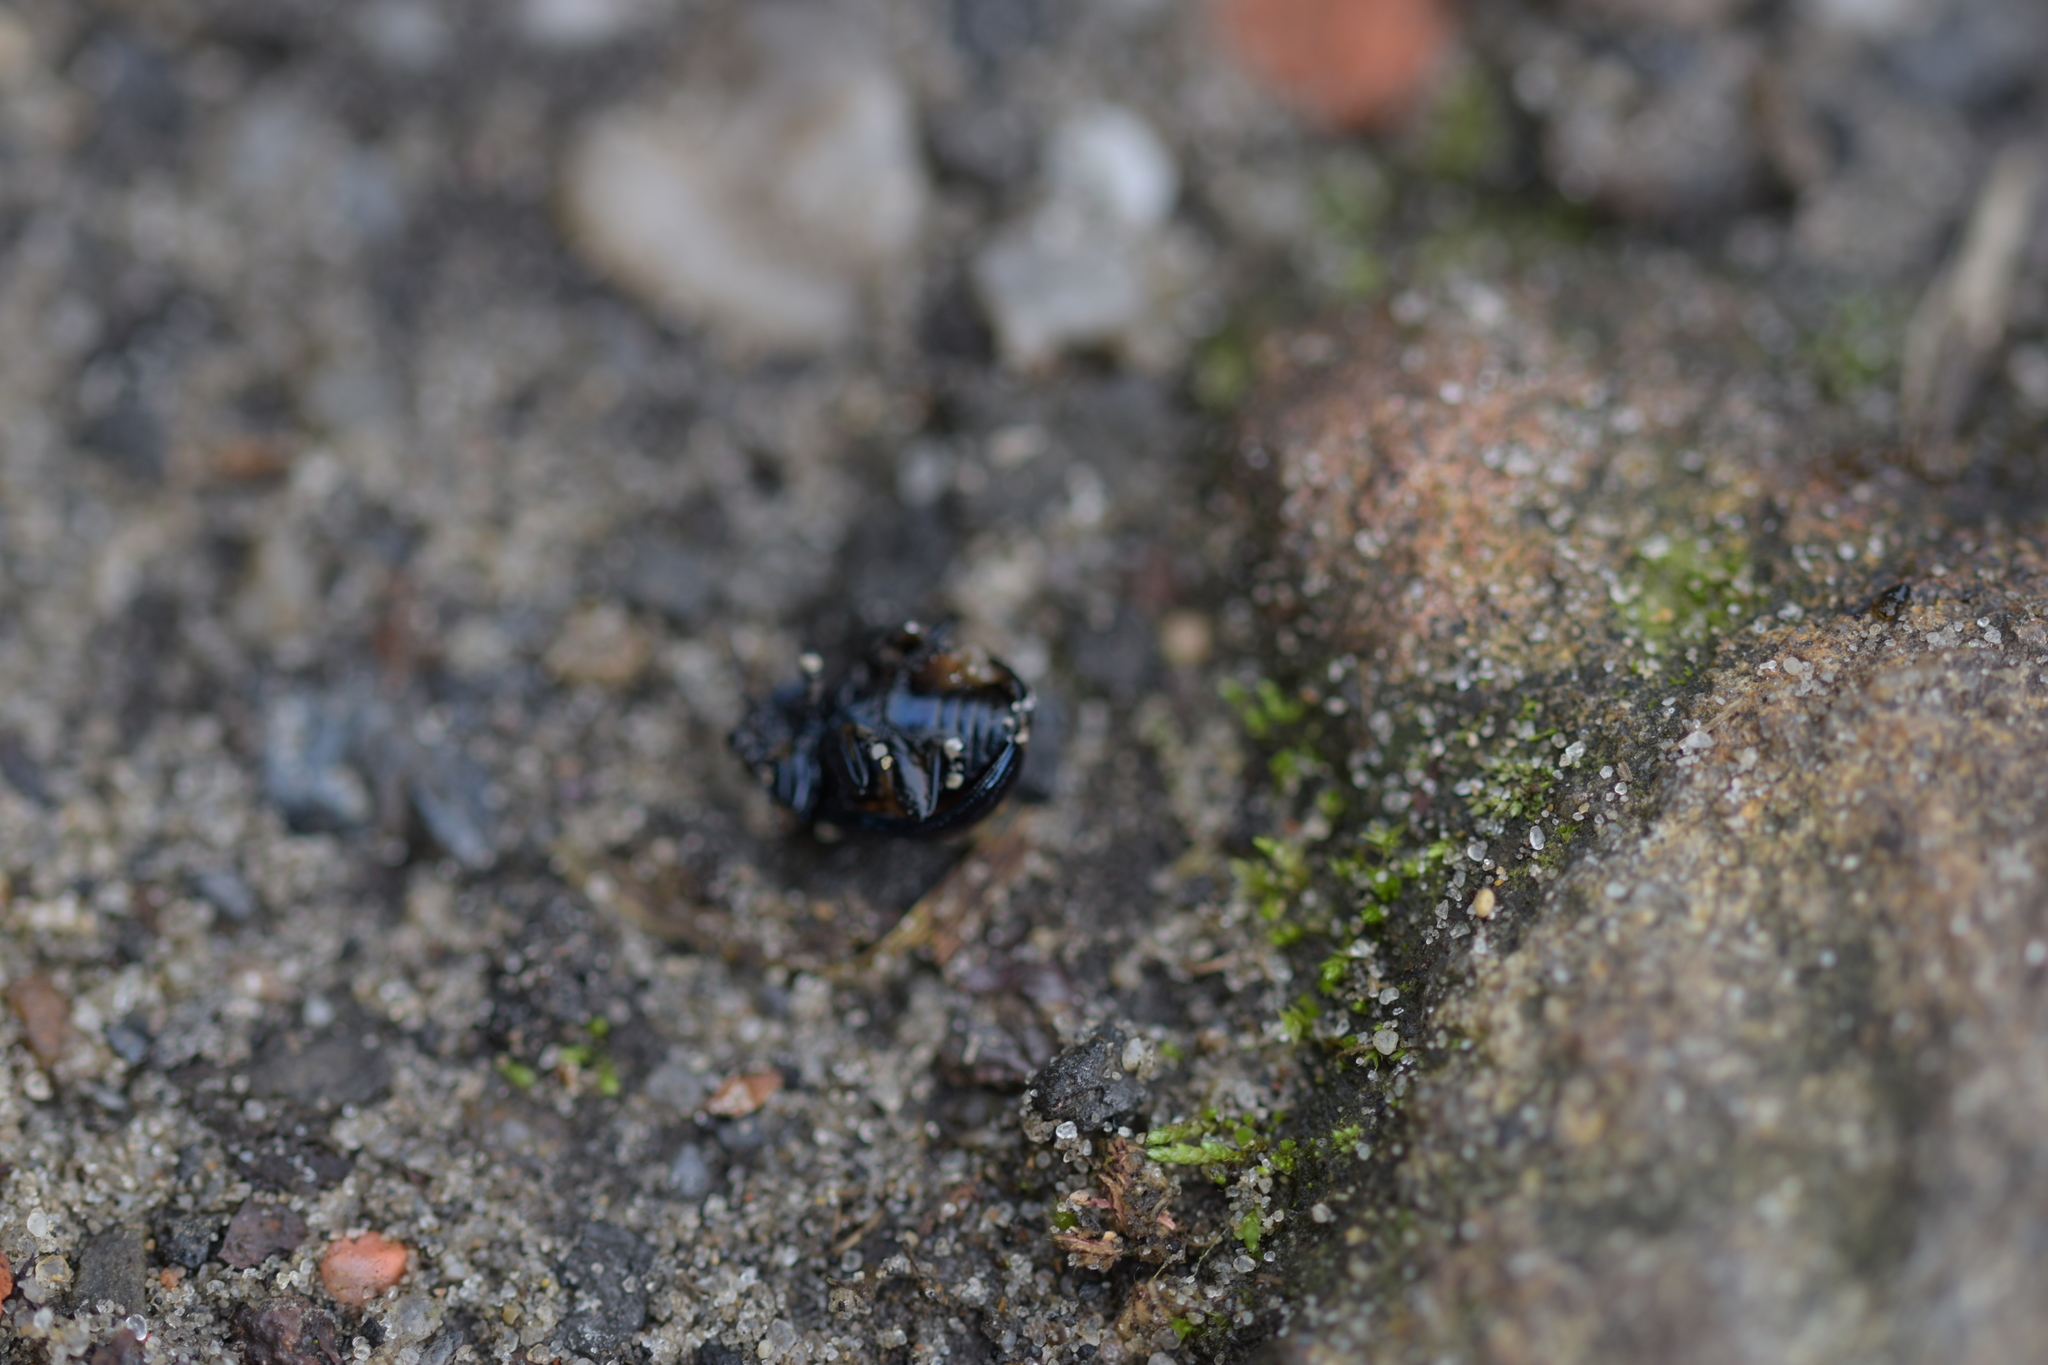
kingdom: Animalia
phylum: Arthropoda
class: Insecta
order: Coleoptera
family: Chrysomelidae
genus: Chrysolina
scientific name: Chrysolina haemoptera
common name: Plantain leaf beetle
